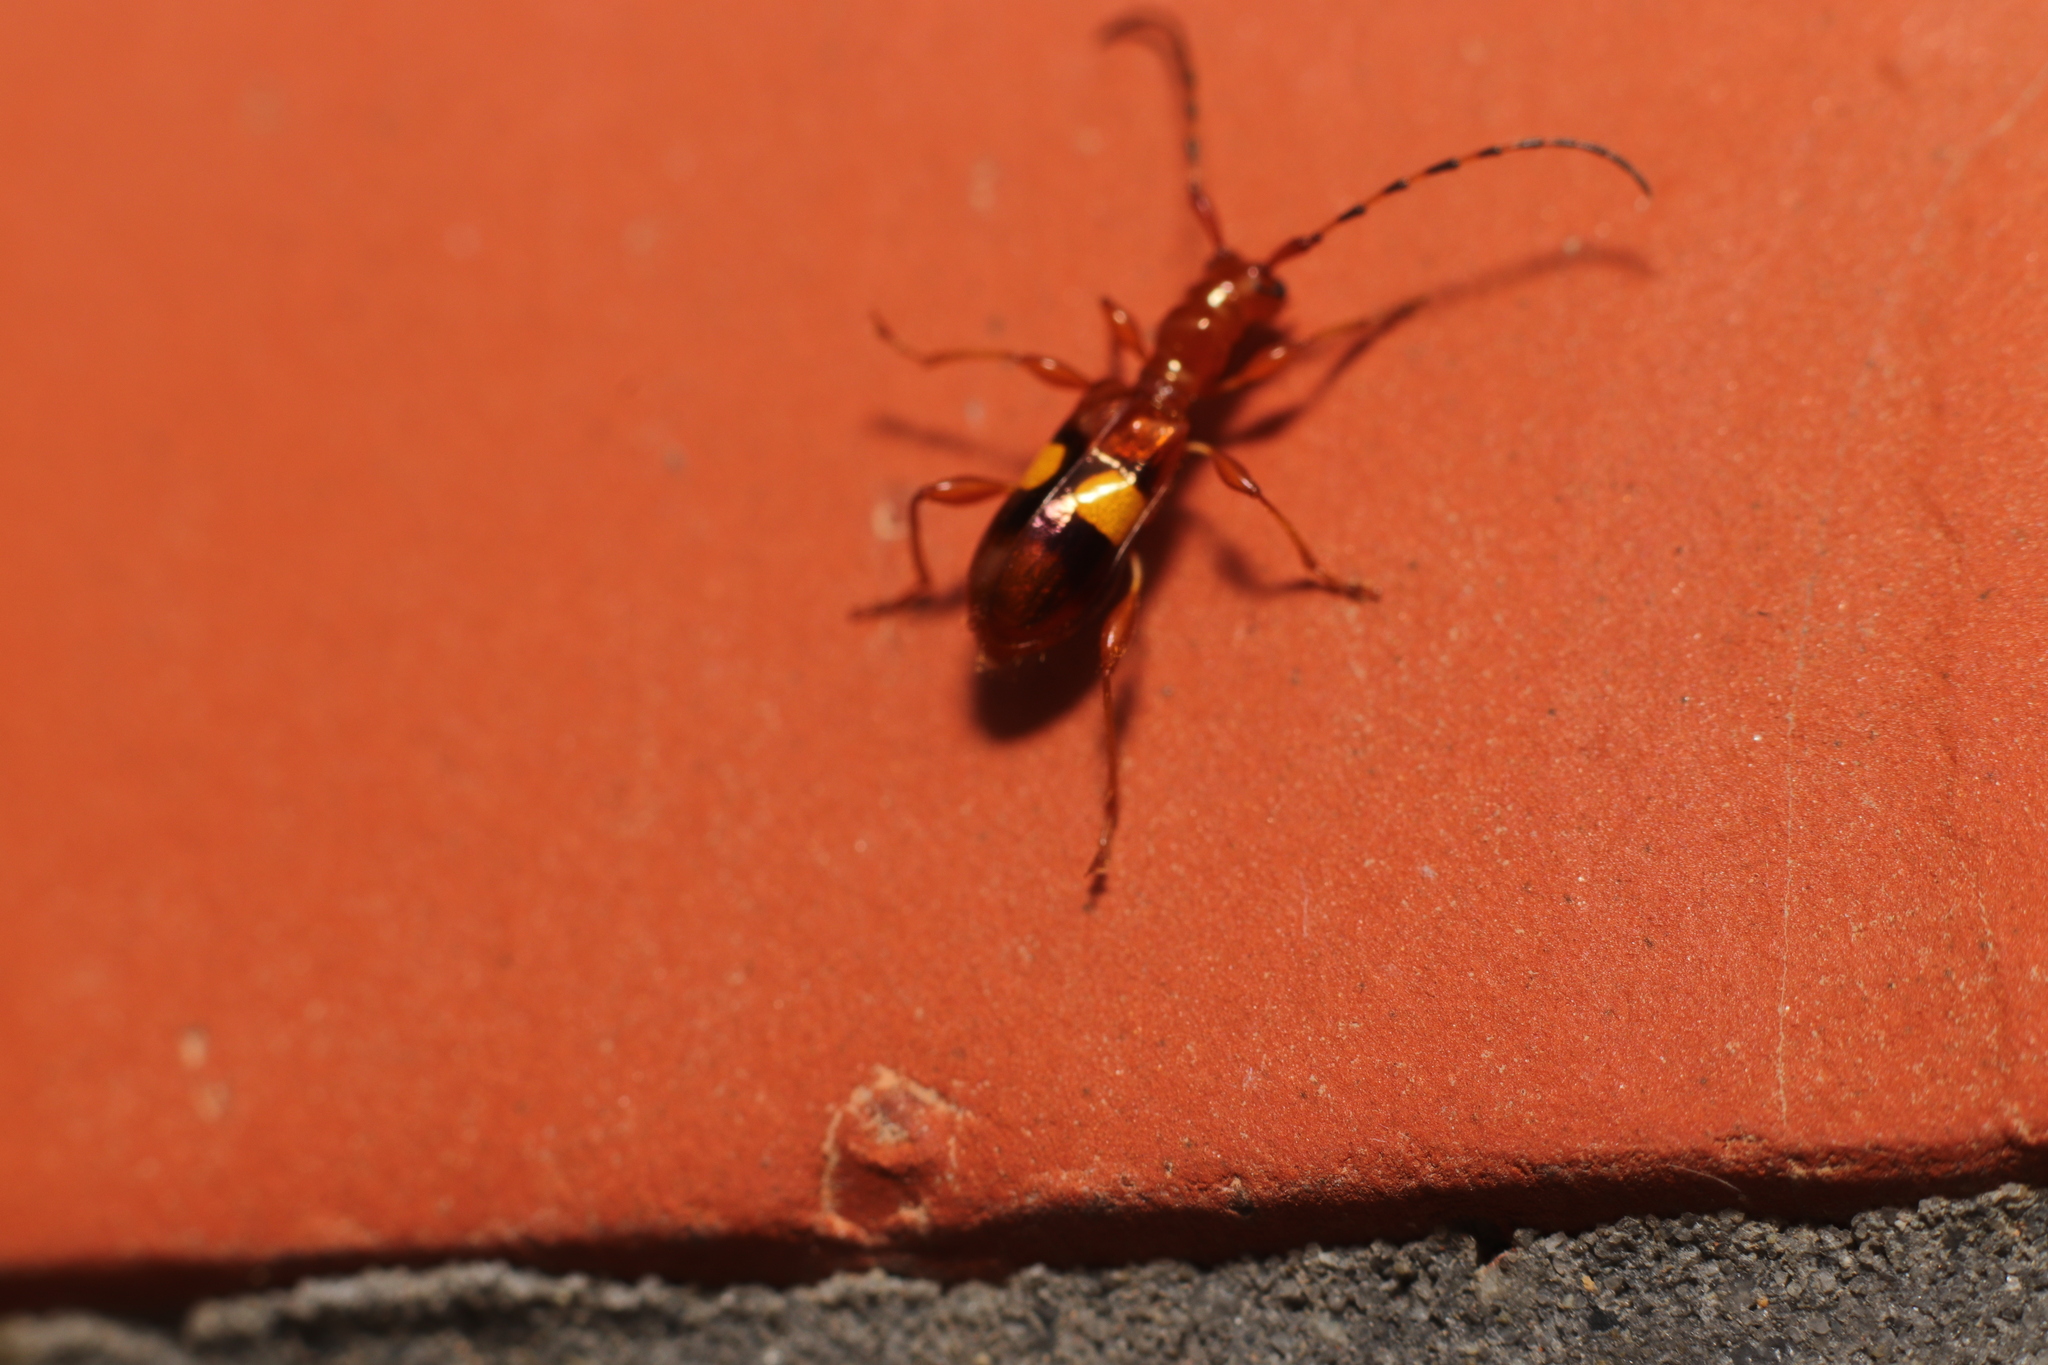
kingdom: Animalia
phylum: Arthropoda
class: Insecta
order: Coleoptera
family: Cerambycidae
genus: Zorion
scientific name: Zorion australe
